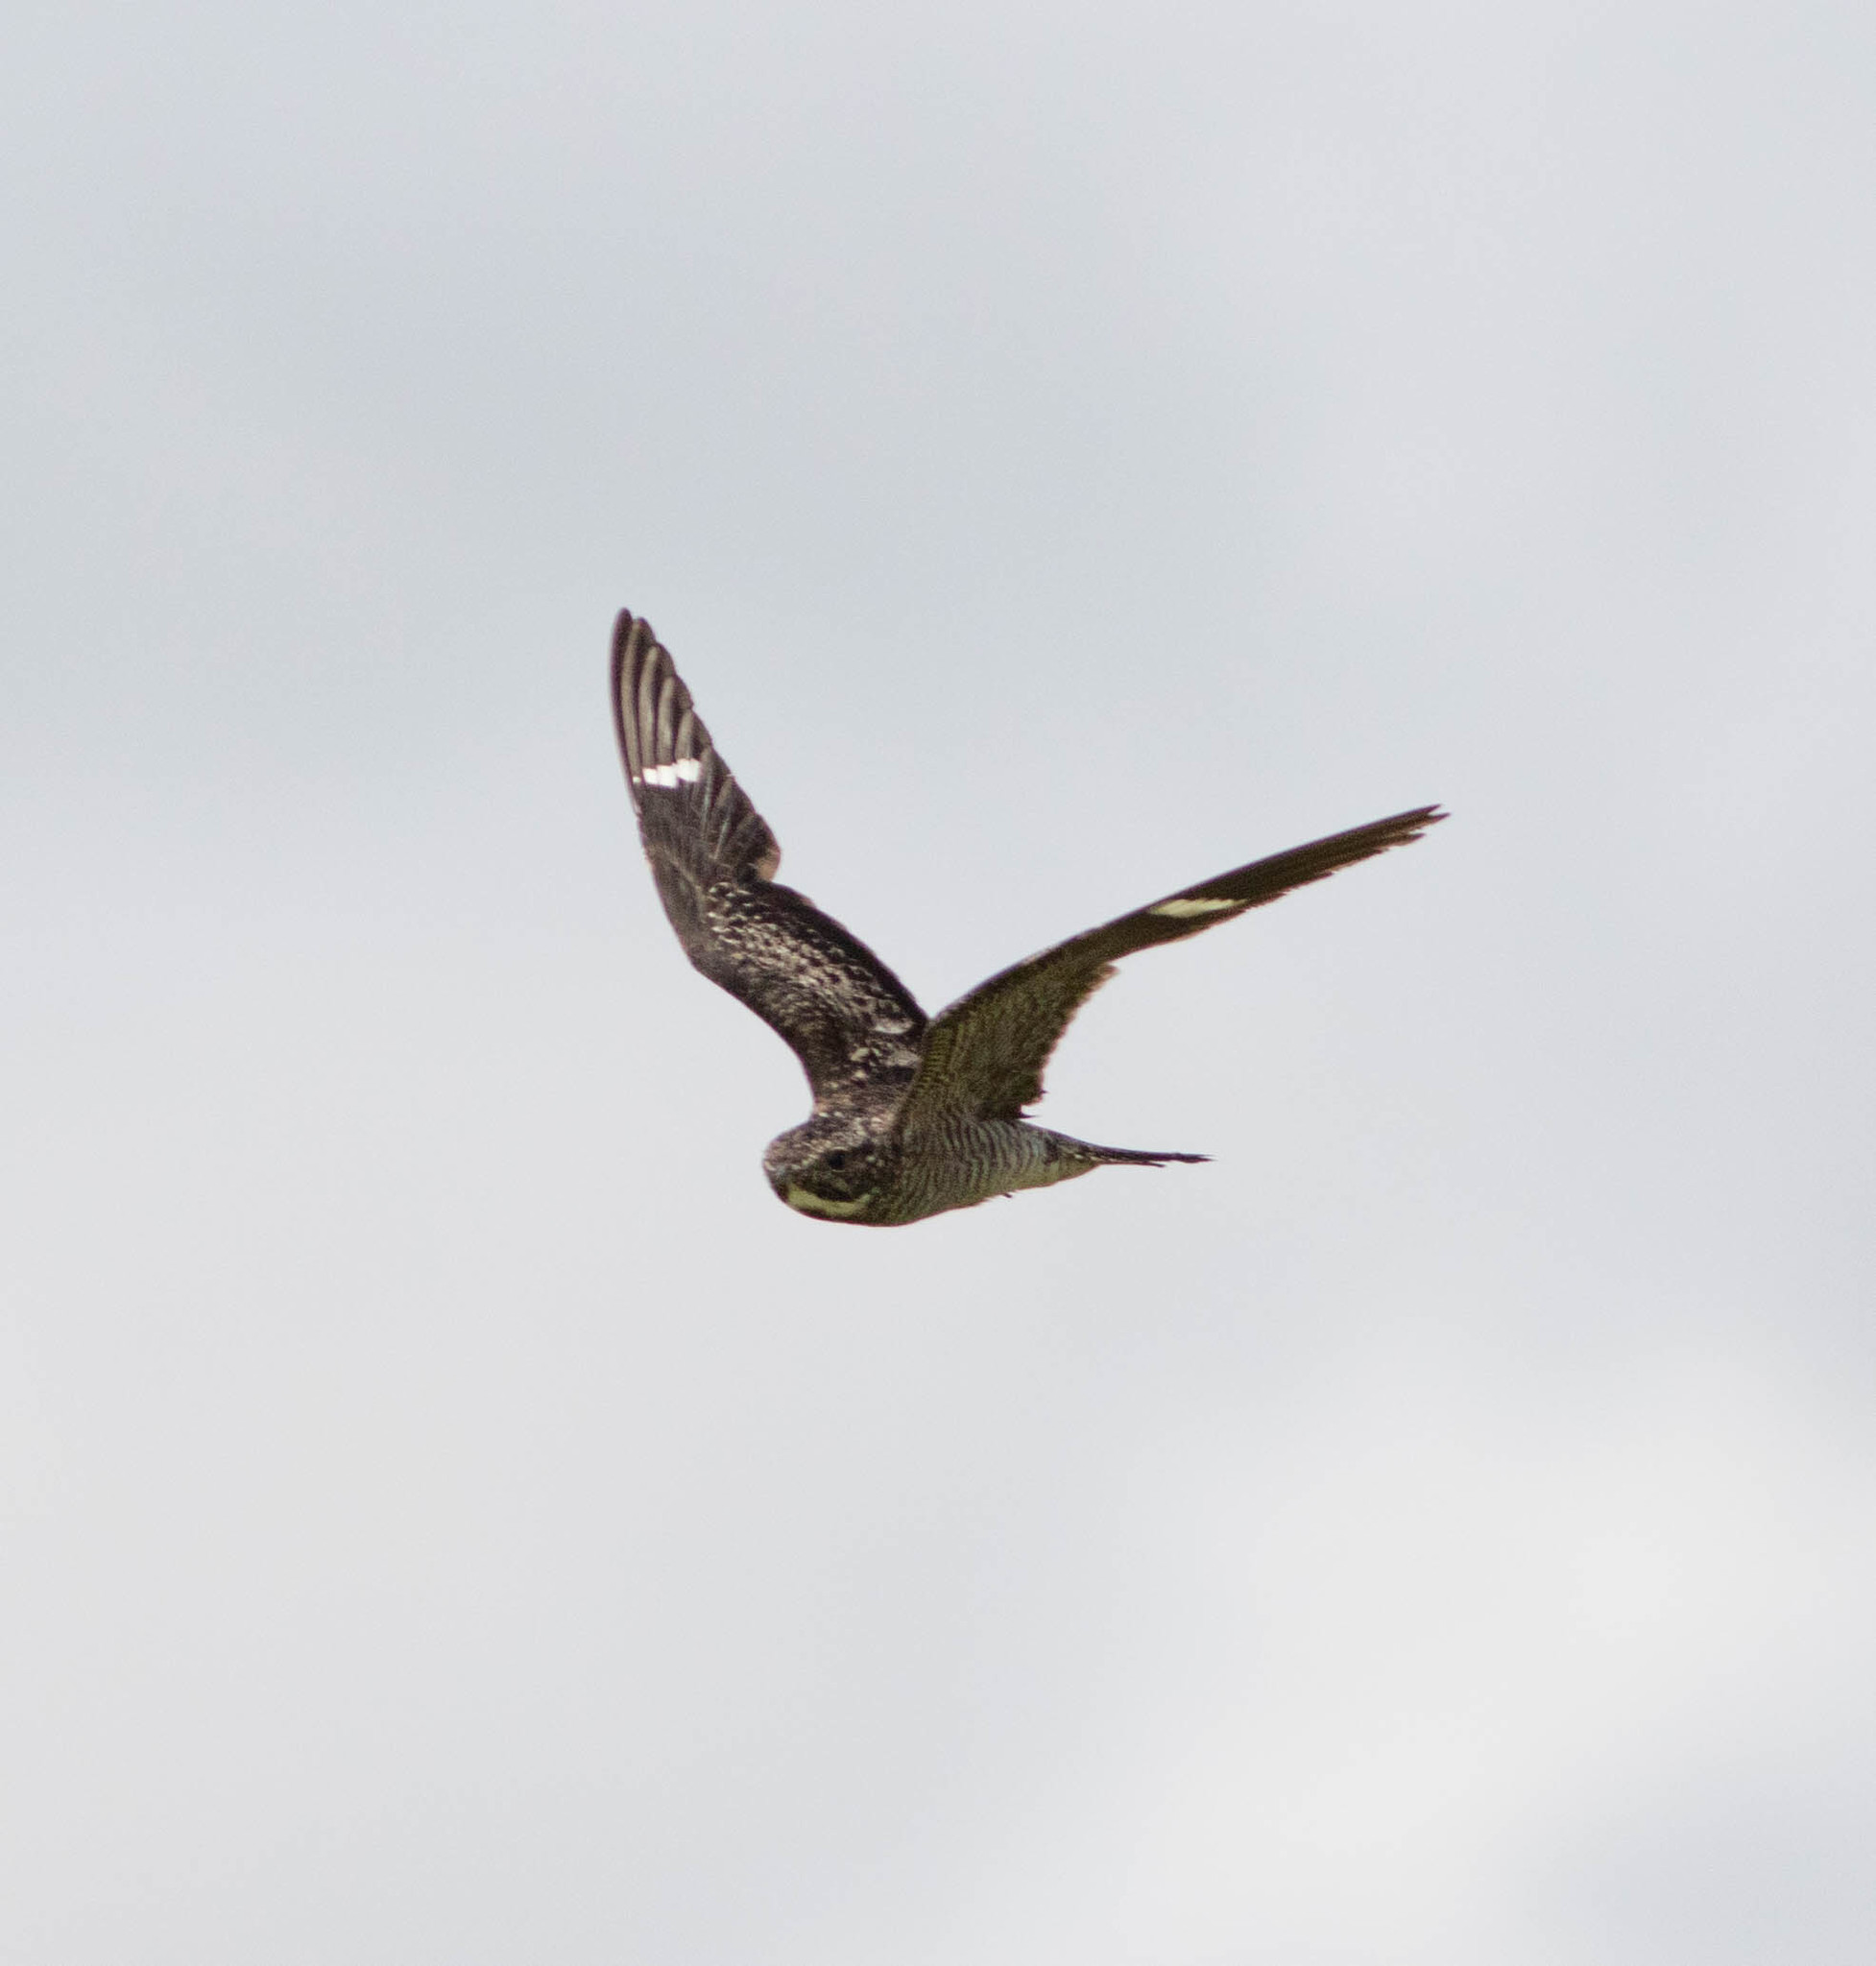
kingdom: Animalia
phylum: Chordata
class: Aves
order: Caprimulgiformes
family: Caprimulgidae
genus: Chordeiles
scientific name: Chordeiles minor
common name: Common nighthawk
